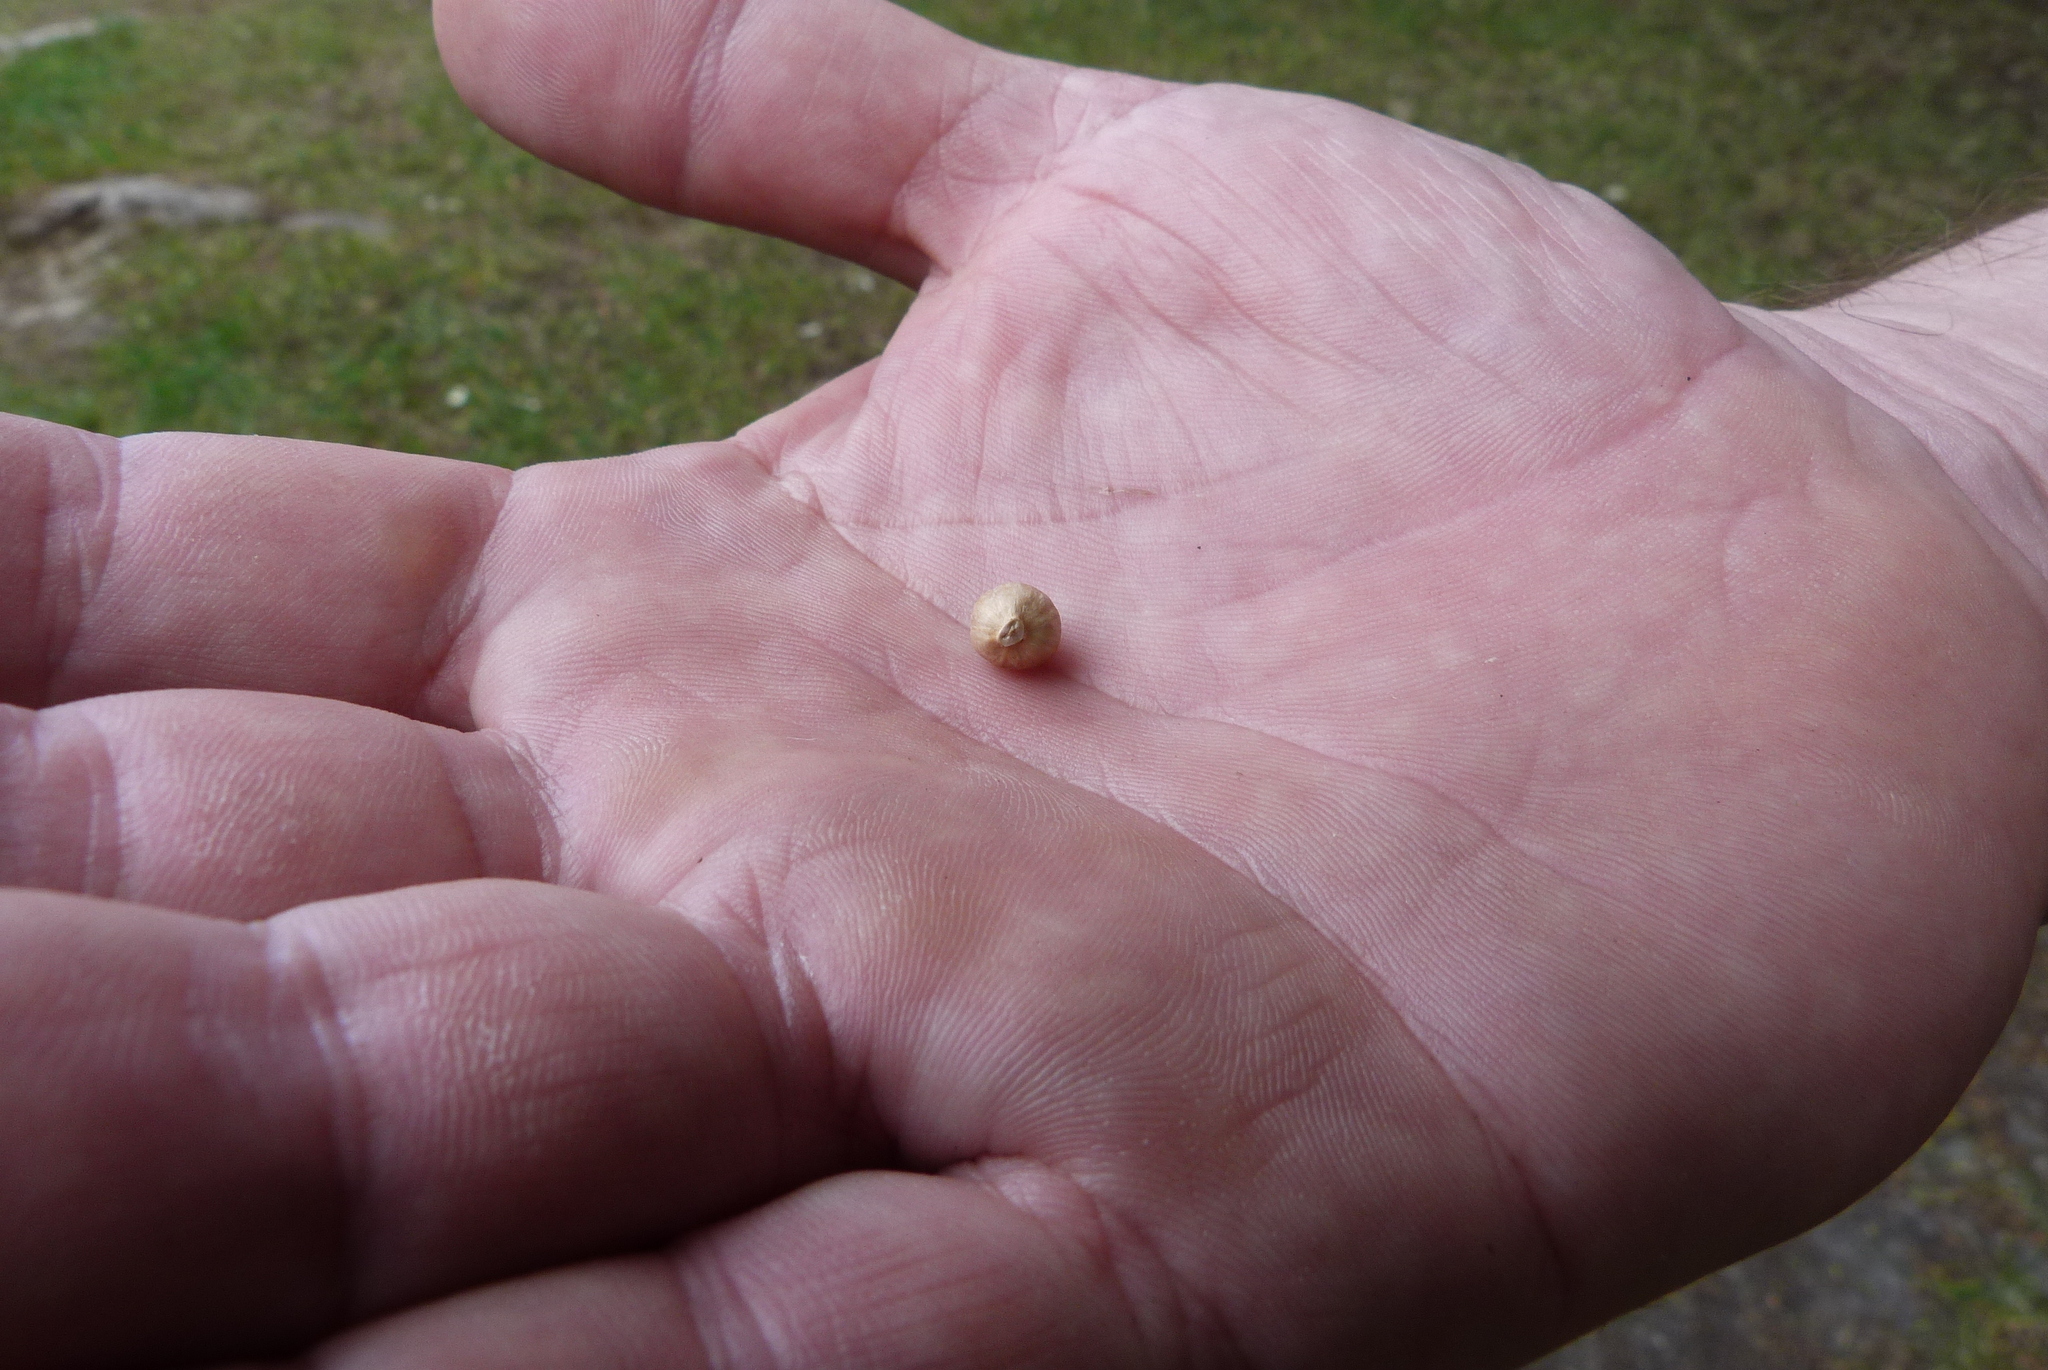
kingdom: Plantae
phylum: Tracheophyta
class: Magnoliopsida
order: Asterales
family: Asteraceae
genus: Osteospermum
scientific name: Osteospermum moniliferum
